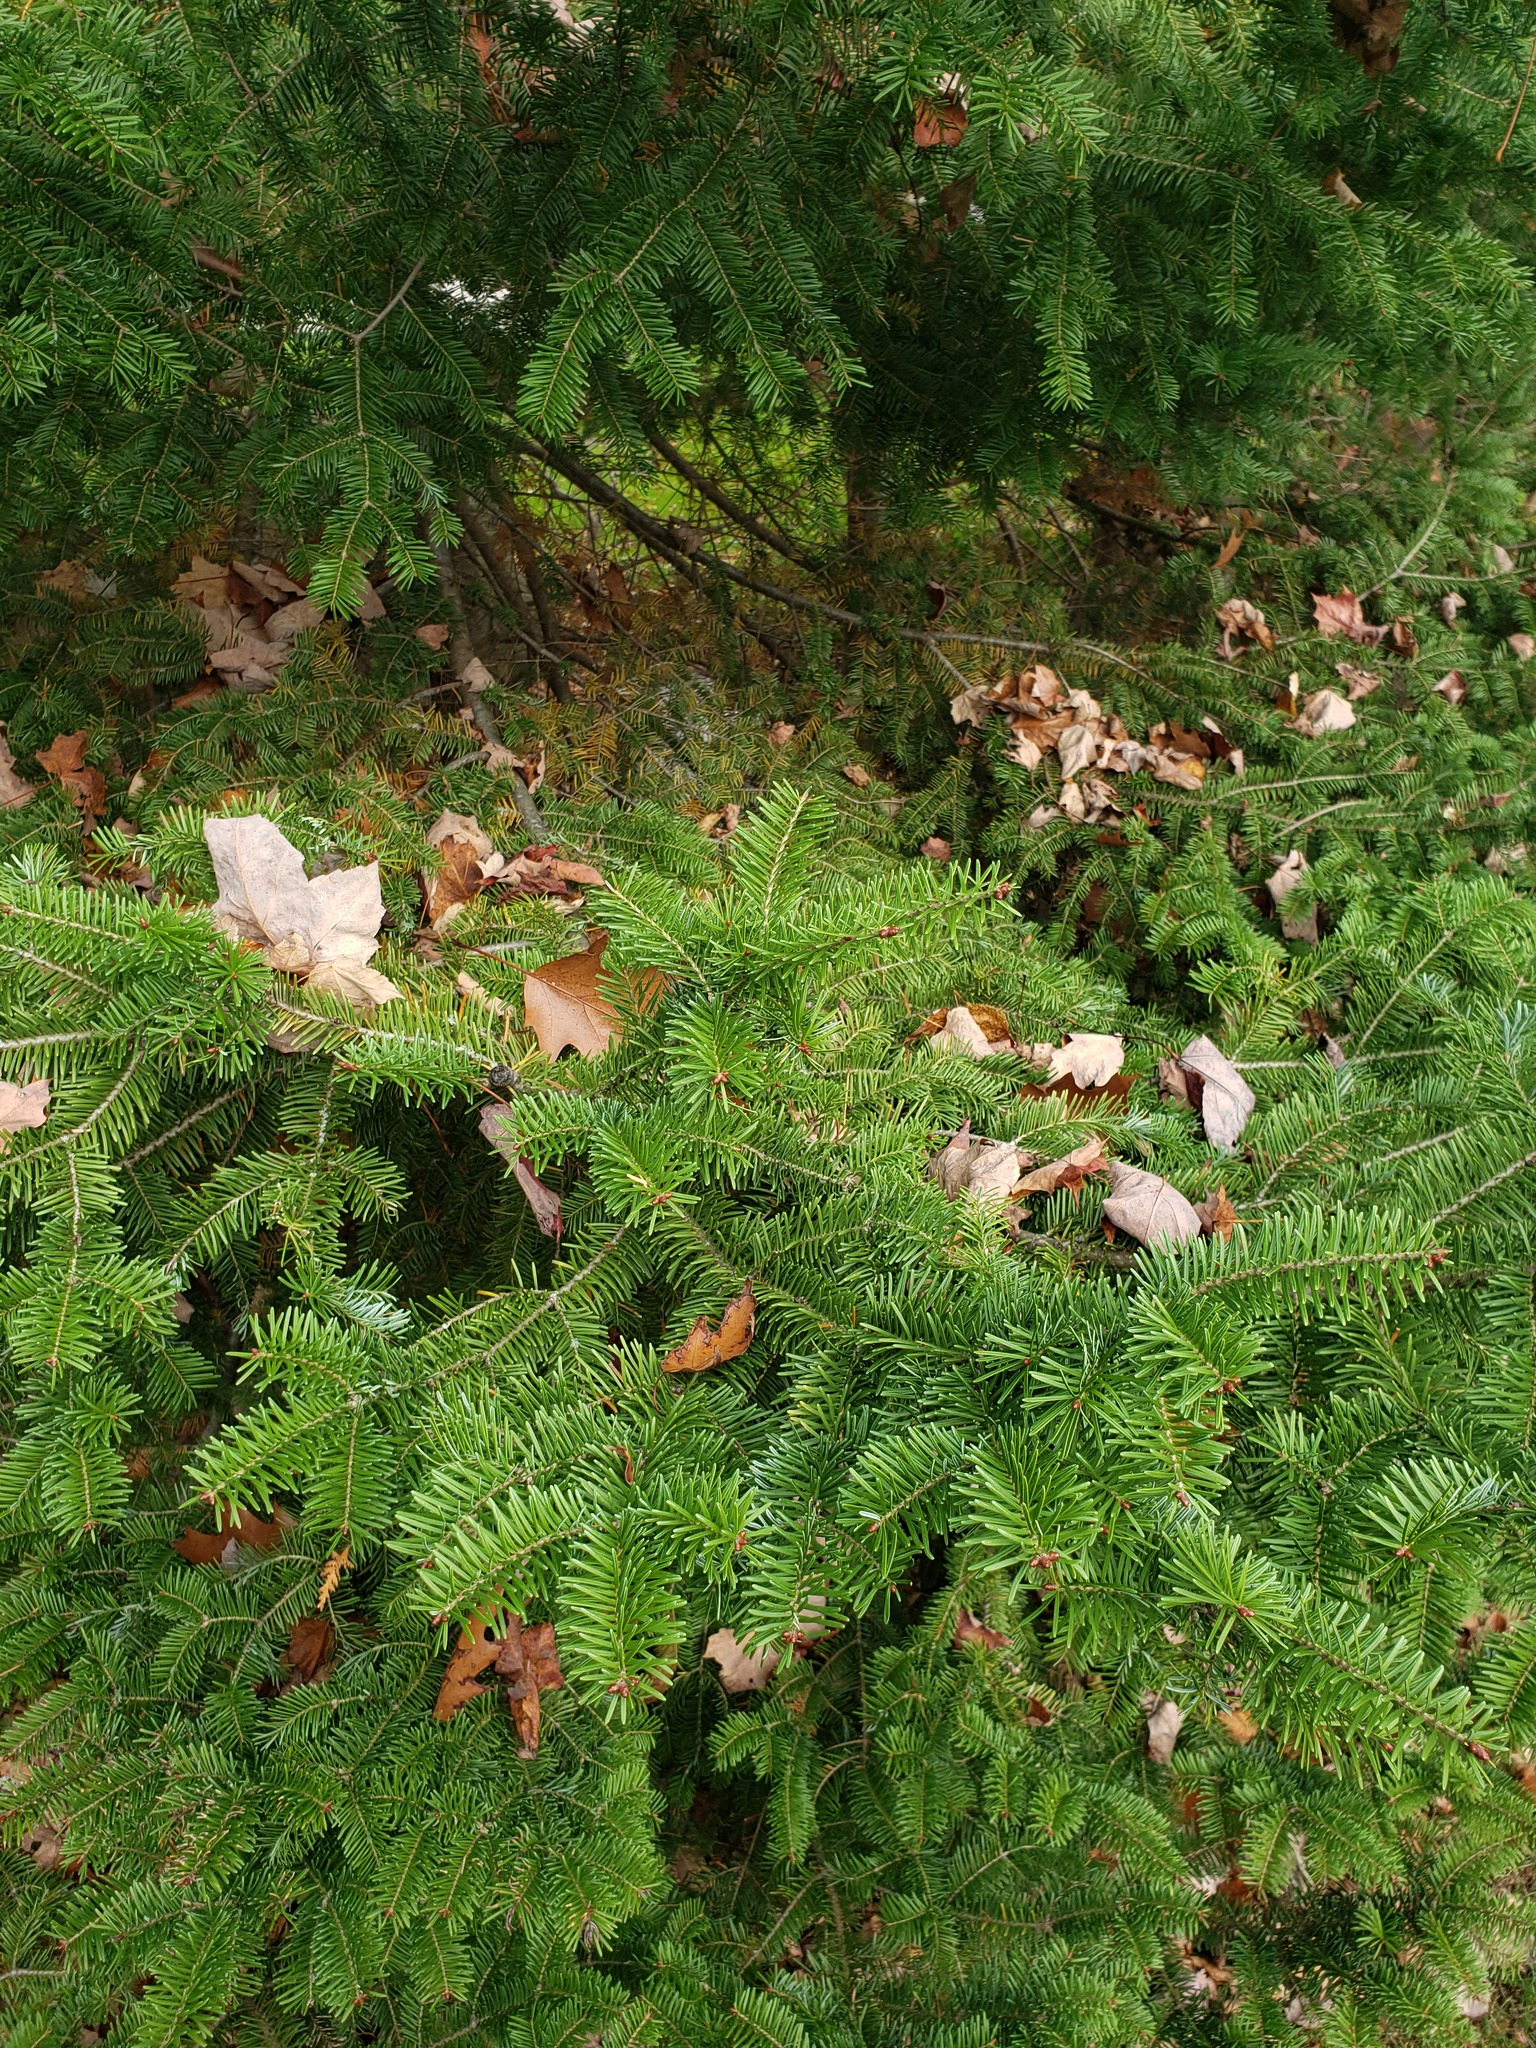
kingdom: Plantae
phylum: Tracheophyta
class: Pinopsida
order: Pinales
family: Pinaceae
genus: Abies
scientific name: Abies balsamea
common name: Balsam fir
